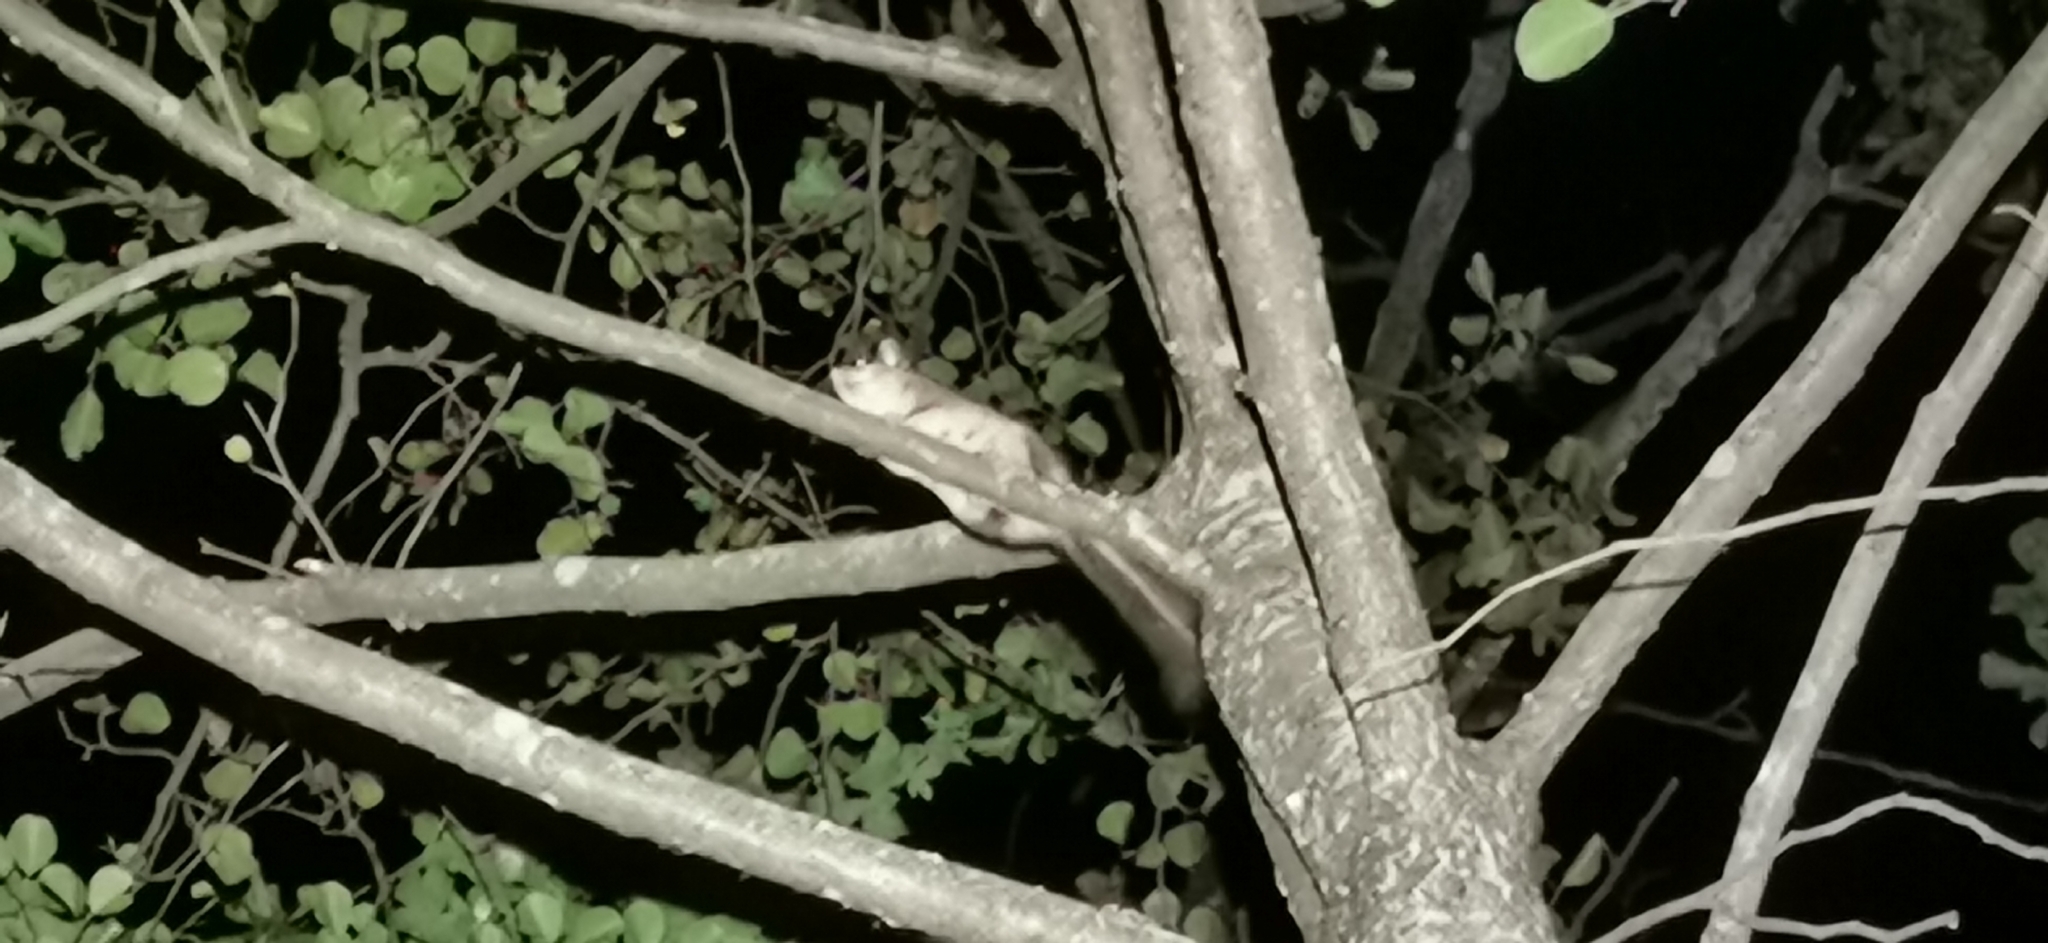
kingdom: Animalia
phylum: Chordata
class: Mammalia
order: Rodentia
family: Gliridae
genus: Glis
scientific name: Glis glis
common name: Fat dormouse
